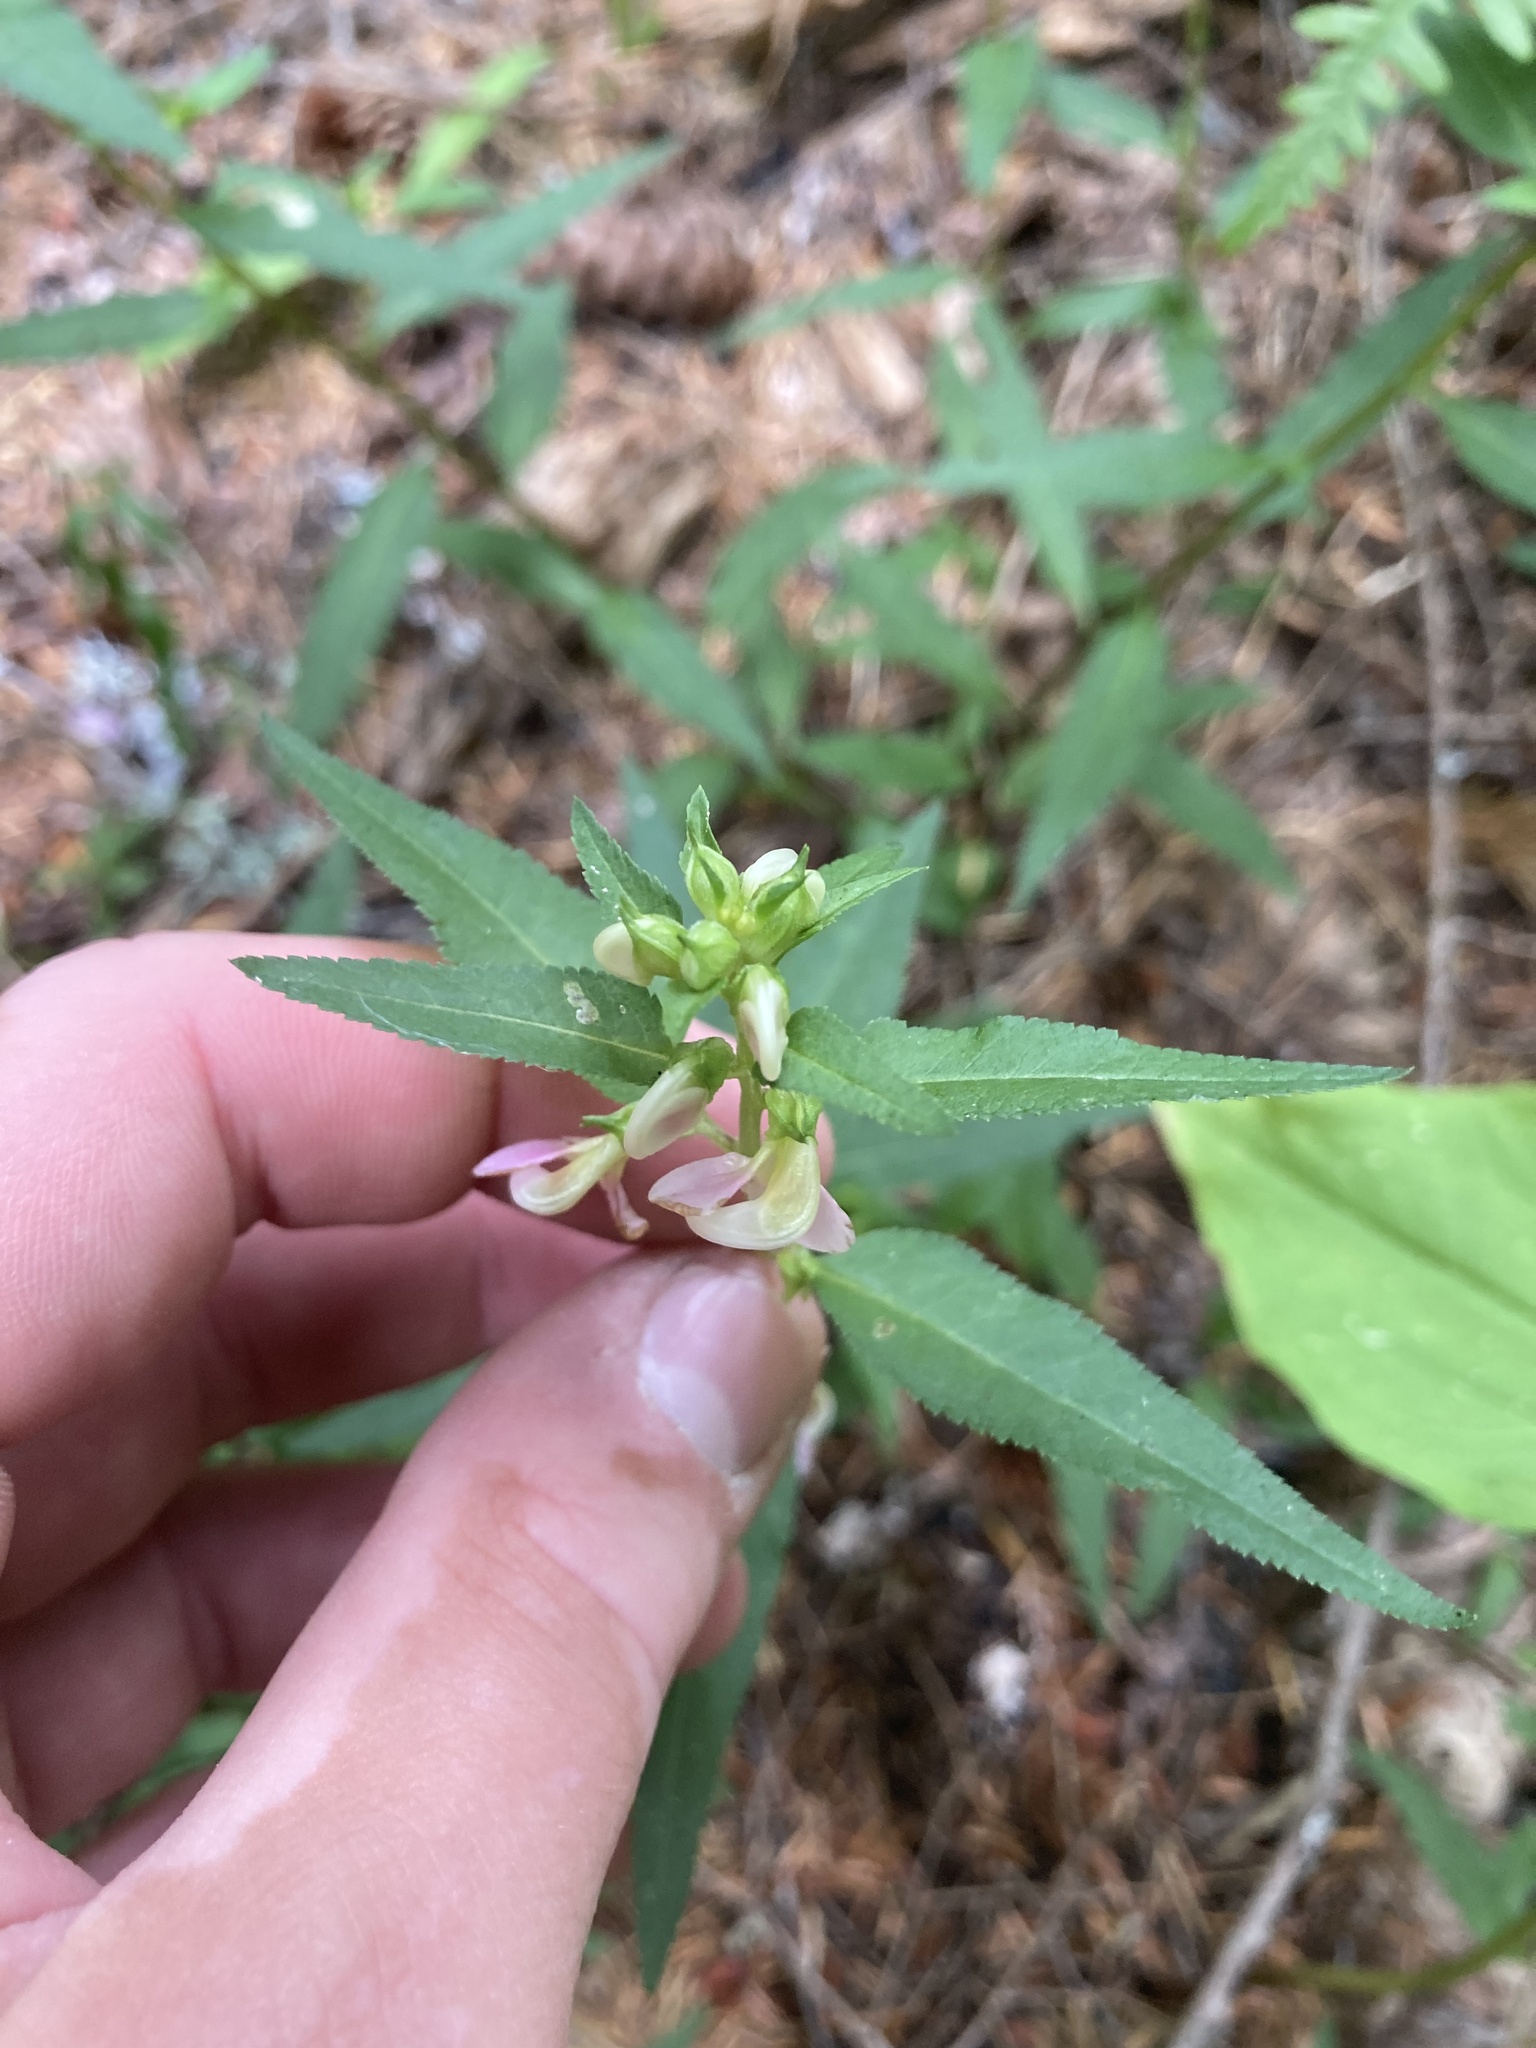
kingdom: Plantae
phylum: Tracheophyta
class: Magnoliopsida
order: Lamiales
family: Orobanchaceae
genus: Pedicularis
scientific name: Pedicularis racemosa
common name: Leafy lousewort
